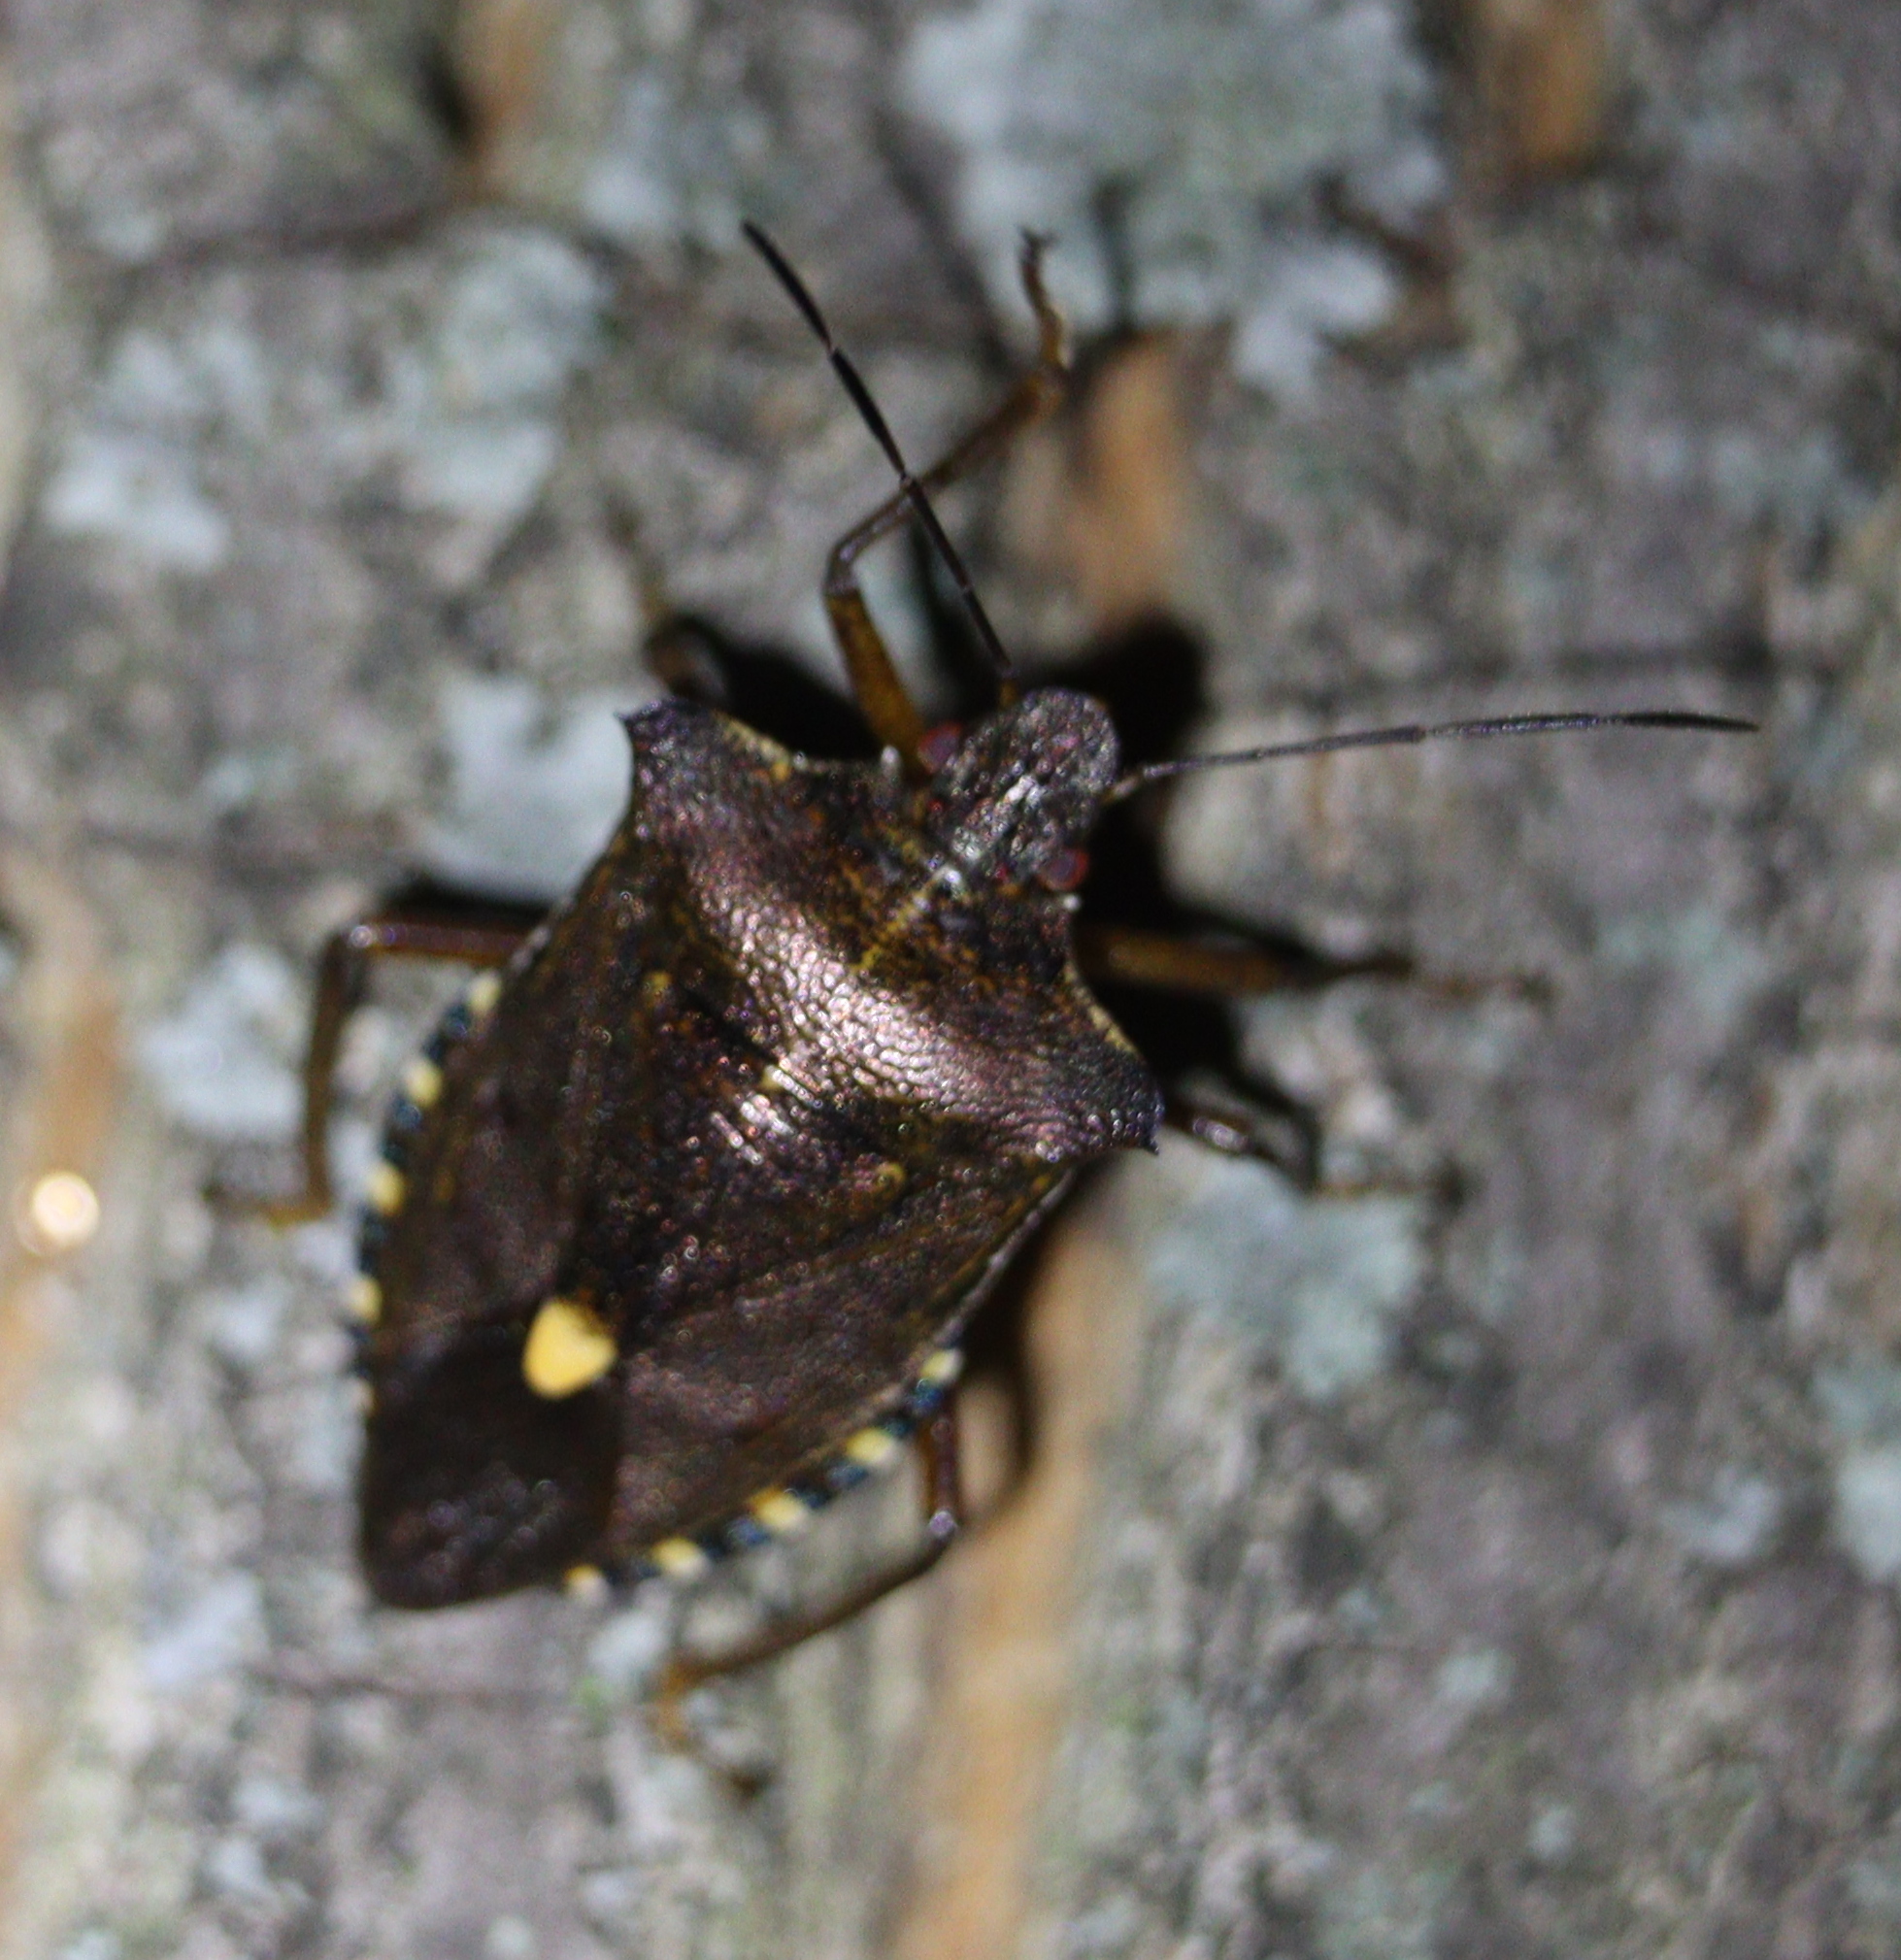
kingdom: Animalia
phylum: Arthropoda
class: Insecta
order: Hemiptera
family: Pentatomidae
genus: Pentatoma
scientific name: Pentatoma rufipes
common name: Forest bug
